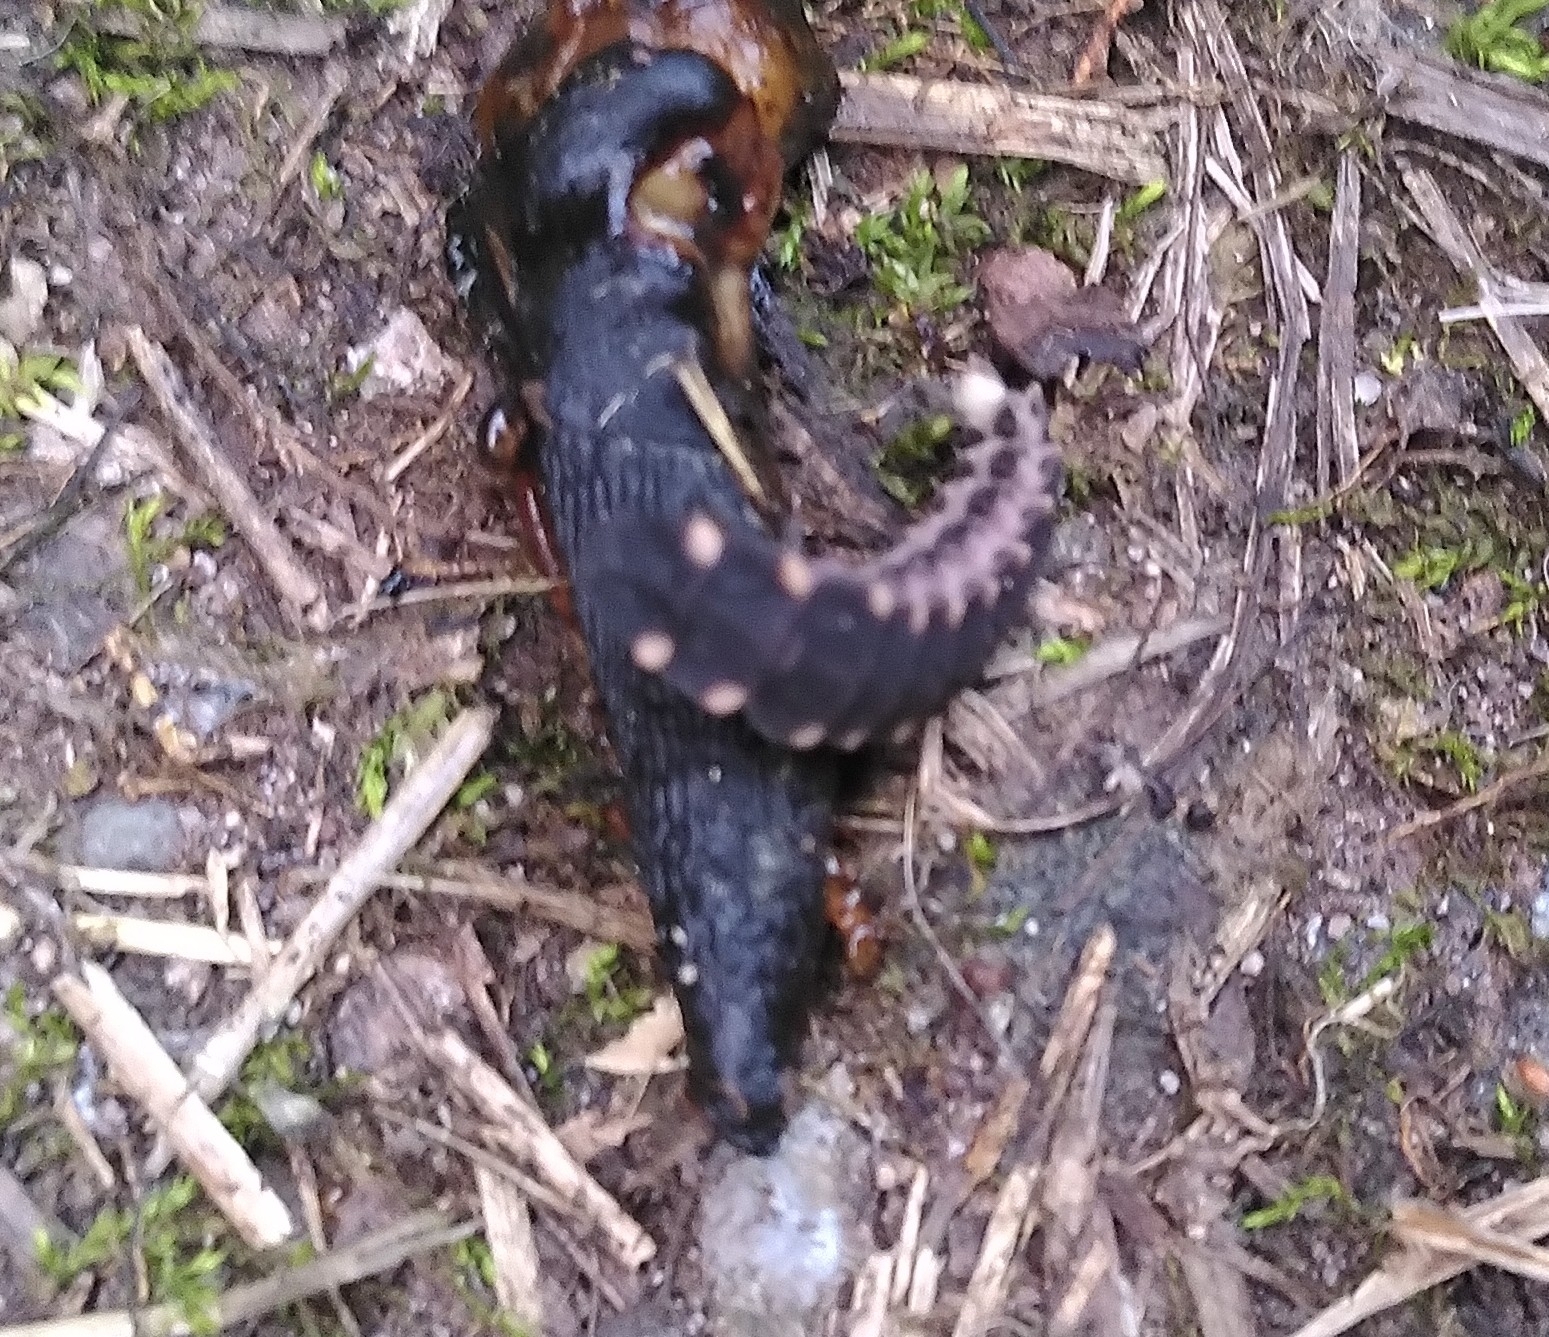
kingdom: Animalia
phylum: Arthropoda
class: Insecta
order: Coleoptera
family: Lampyridae
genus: Lampyris
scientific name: Lampyris noctiluca
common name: Glow-worm
